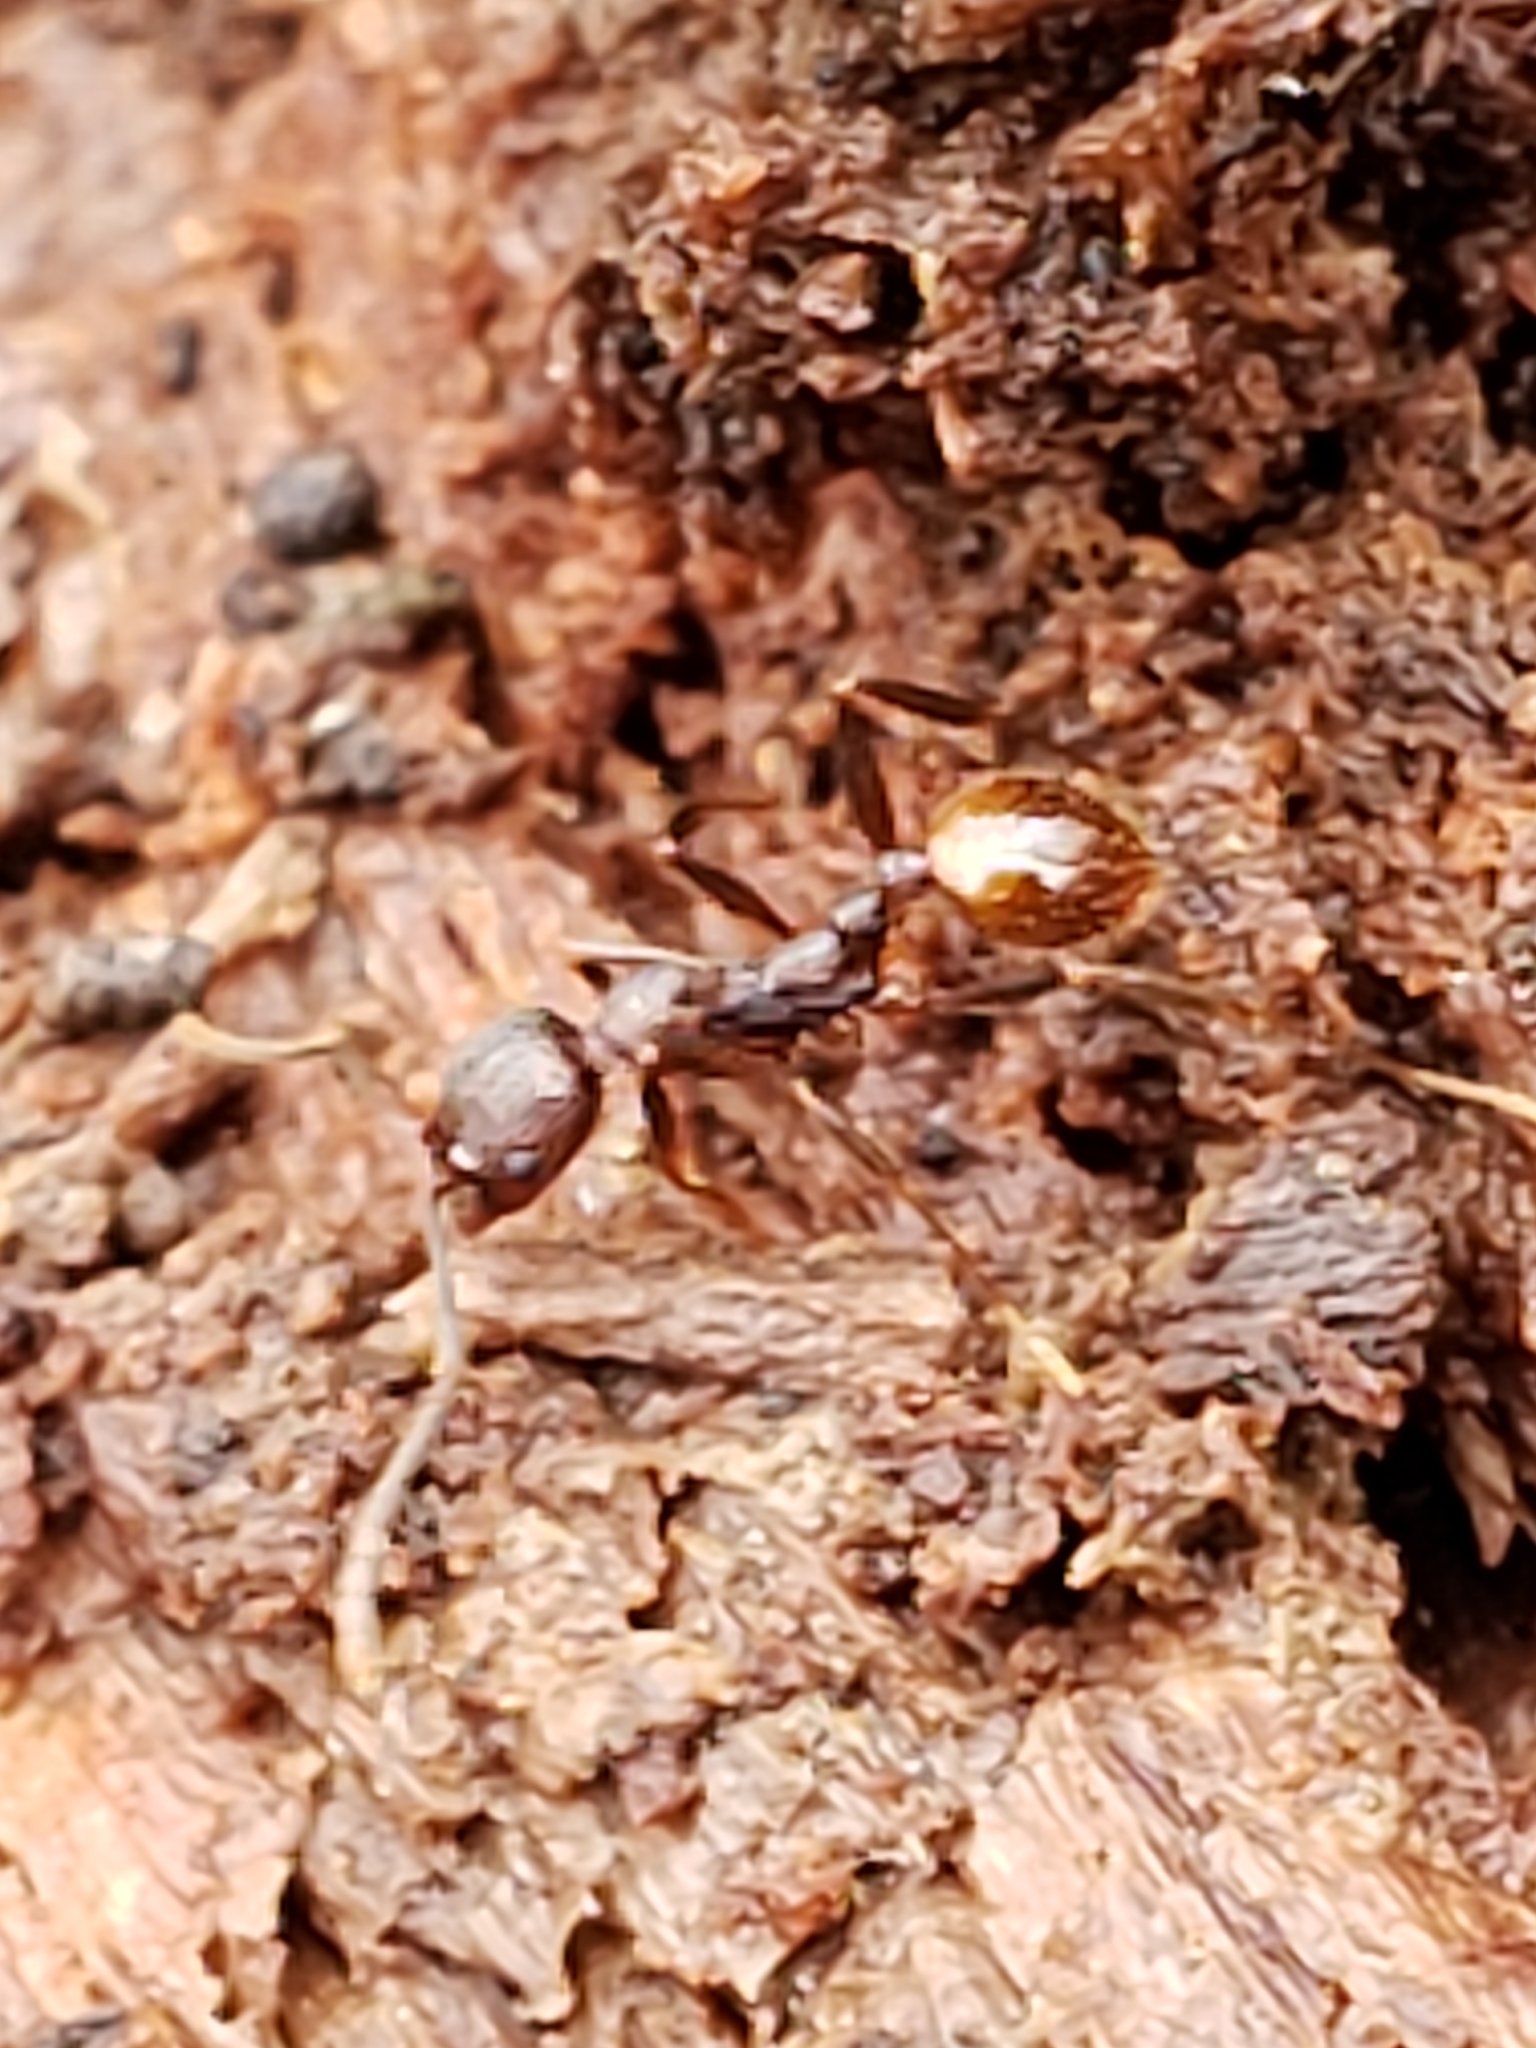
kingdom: Animalia
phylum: Arthropoda
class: Insecta
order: Hymenoptera
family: Formicidae
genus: Aphaenogaster
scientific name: Aphaenogaster fulva
